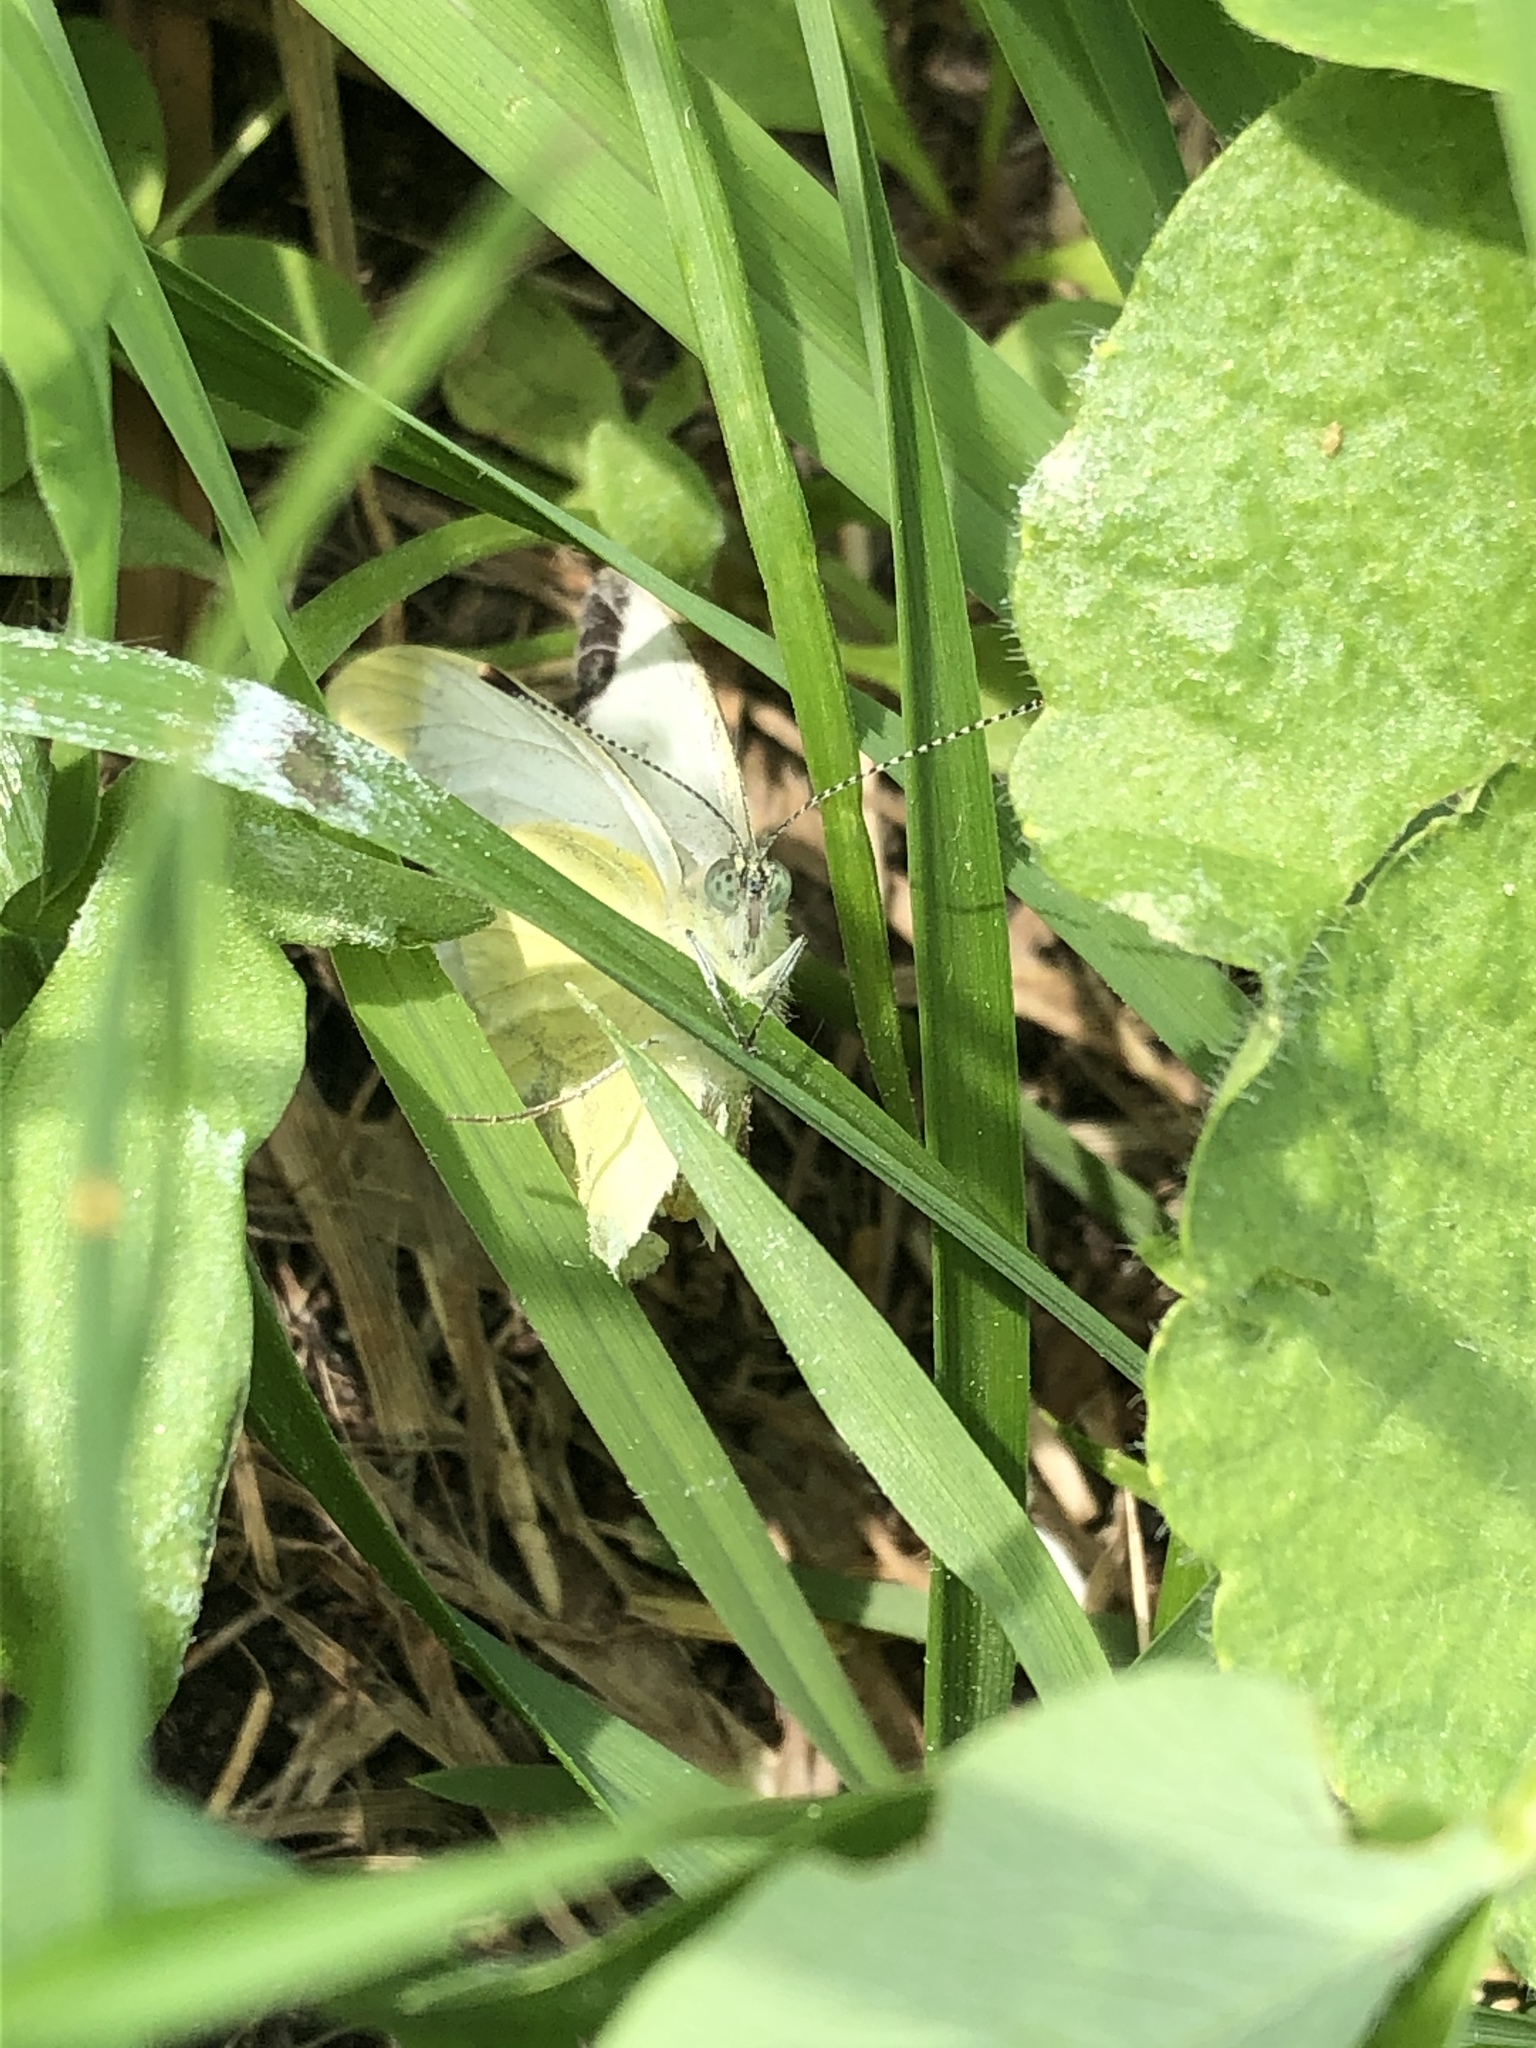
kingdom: Animalia
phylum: Arthropoda
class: Insecta
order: Lepidoptera
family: Pieridae
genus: Pieris
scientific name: Pieris rapae
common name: Small white
